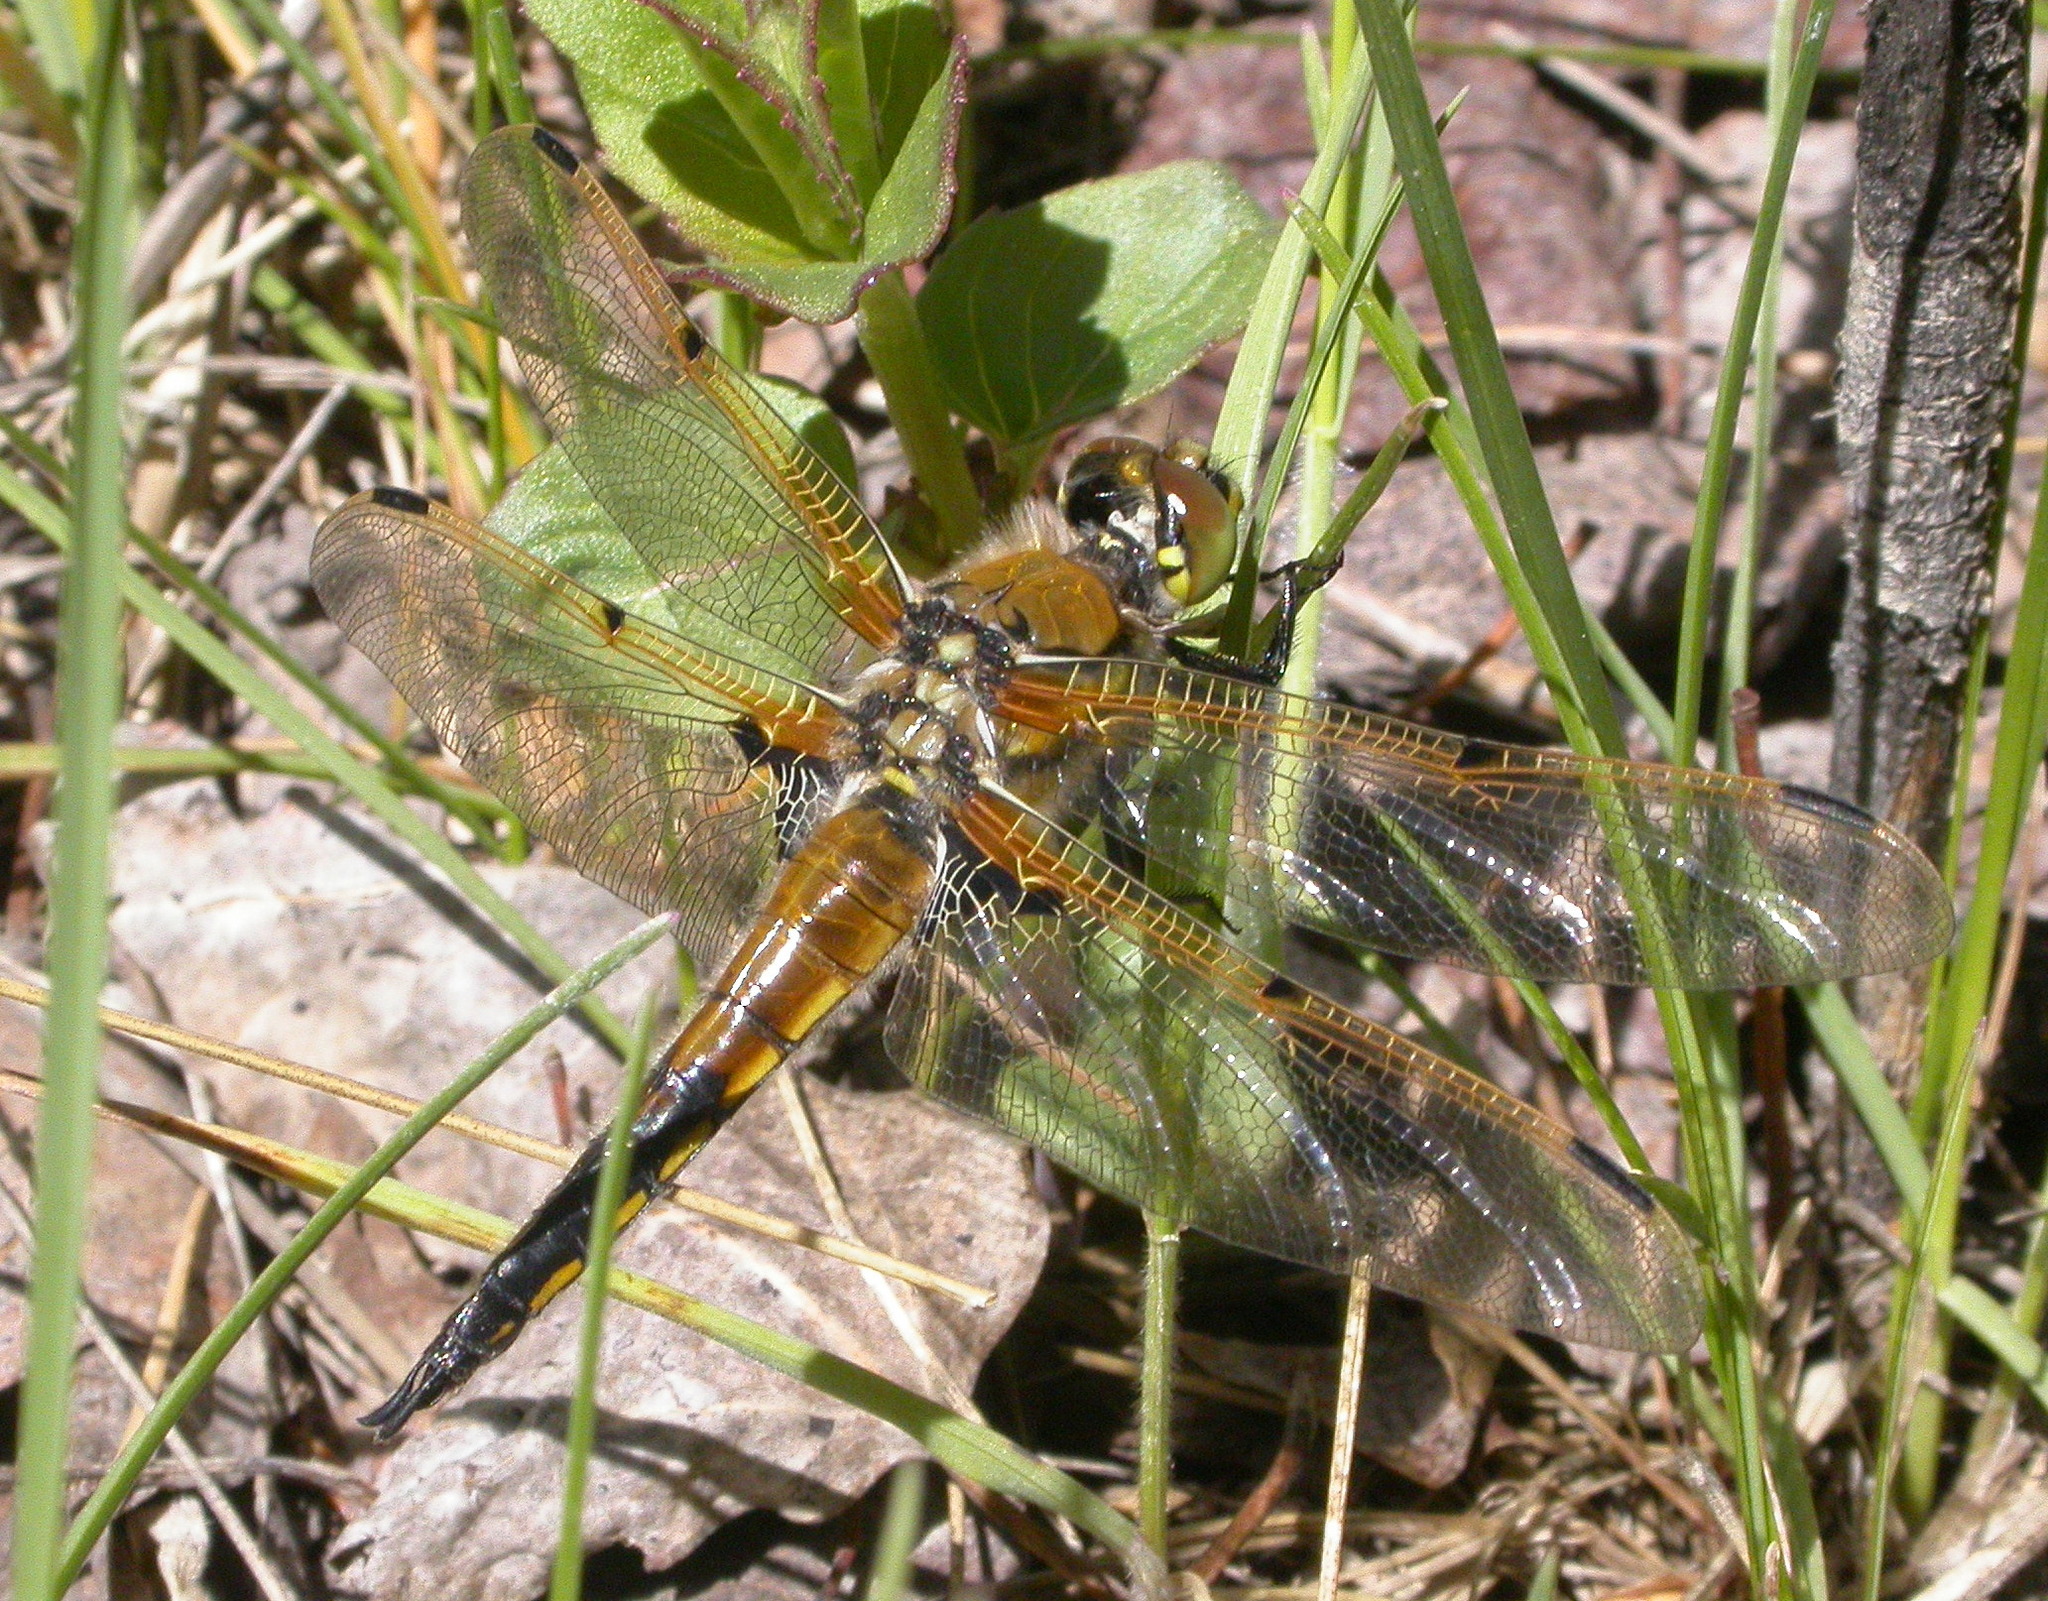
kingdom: Animalia
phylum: Arthropoda
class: Insecta
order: Odonata
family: Libellulidae
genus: Libellula
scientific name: Libellula quadrimaculata
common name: Four-spotted chaser
